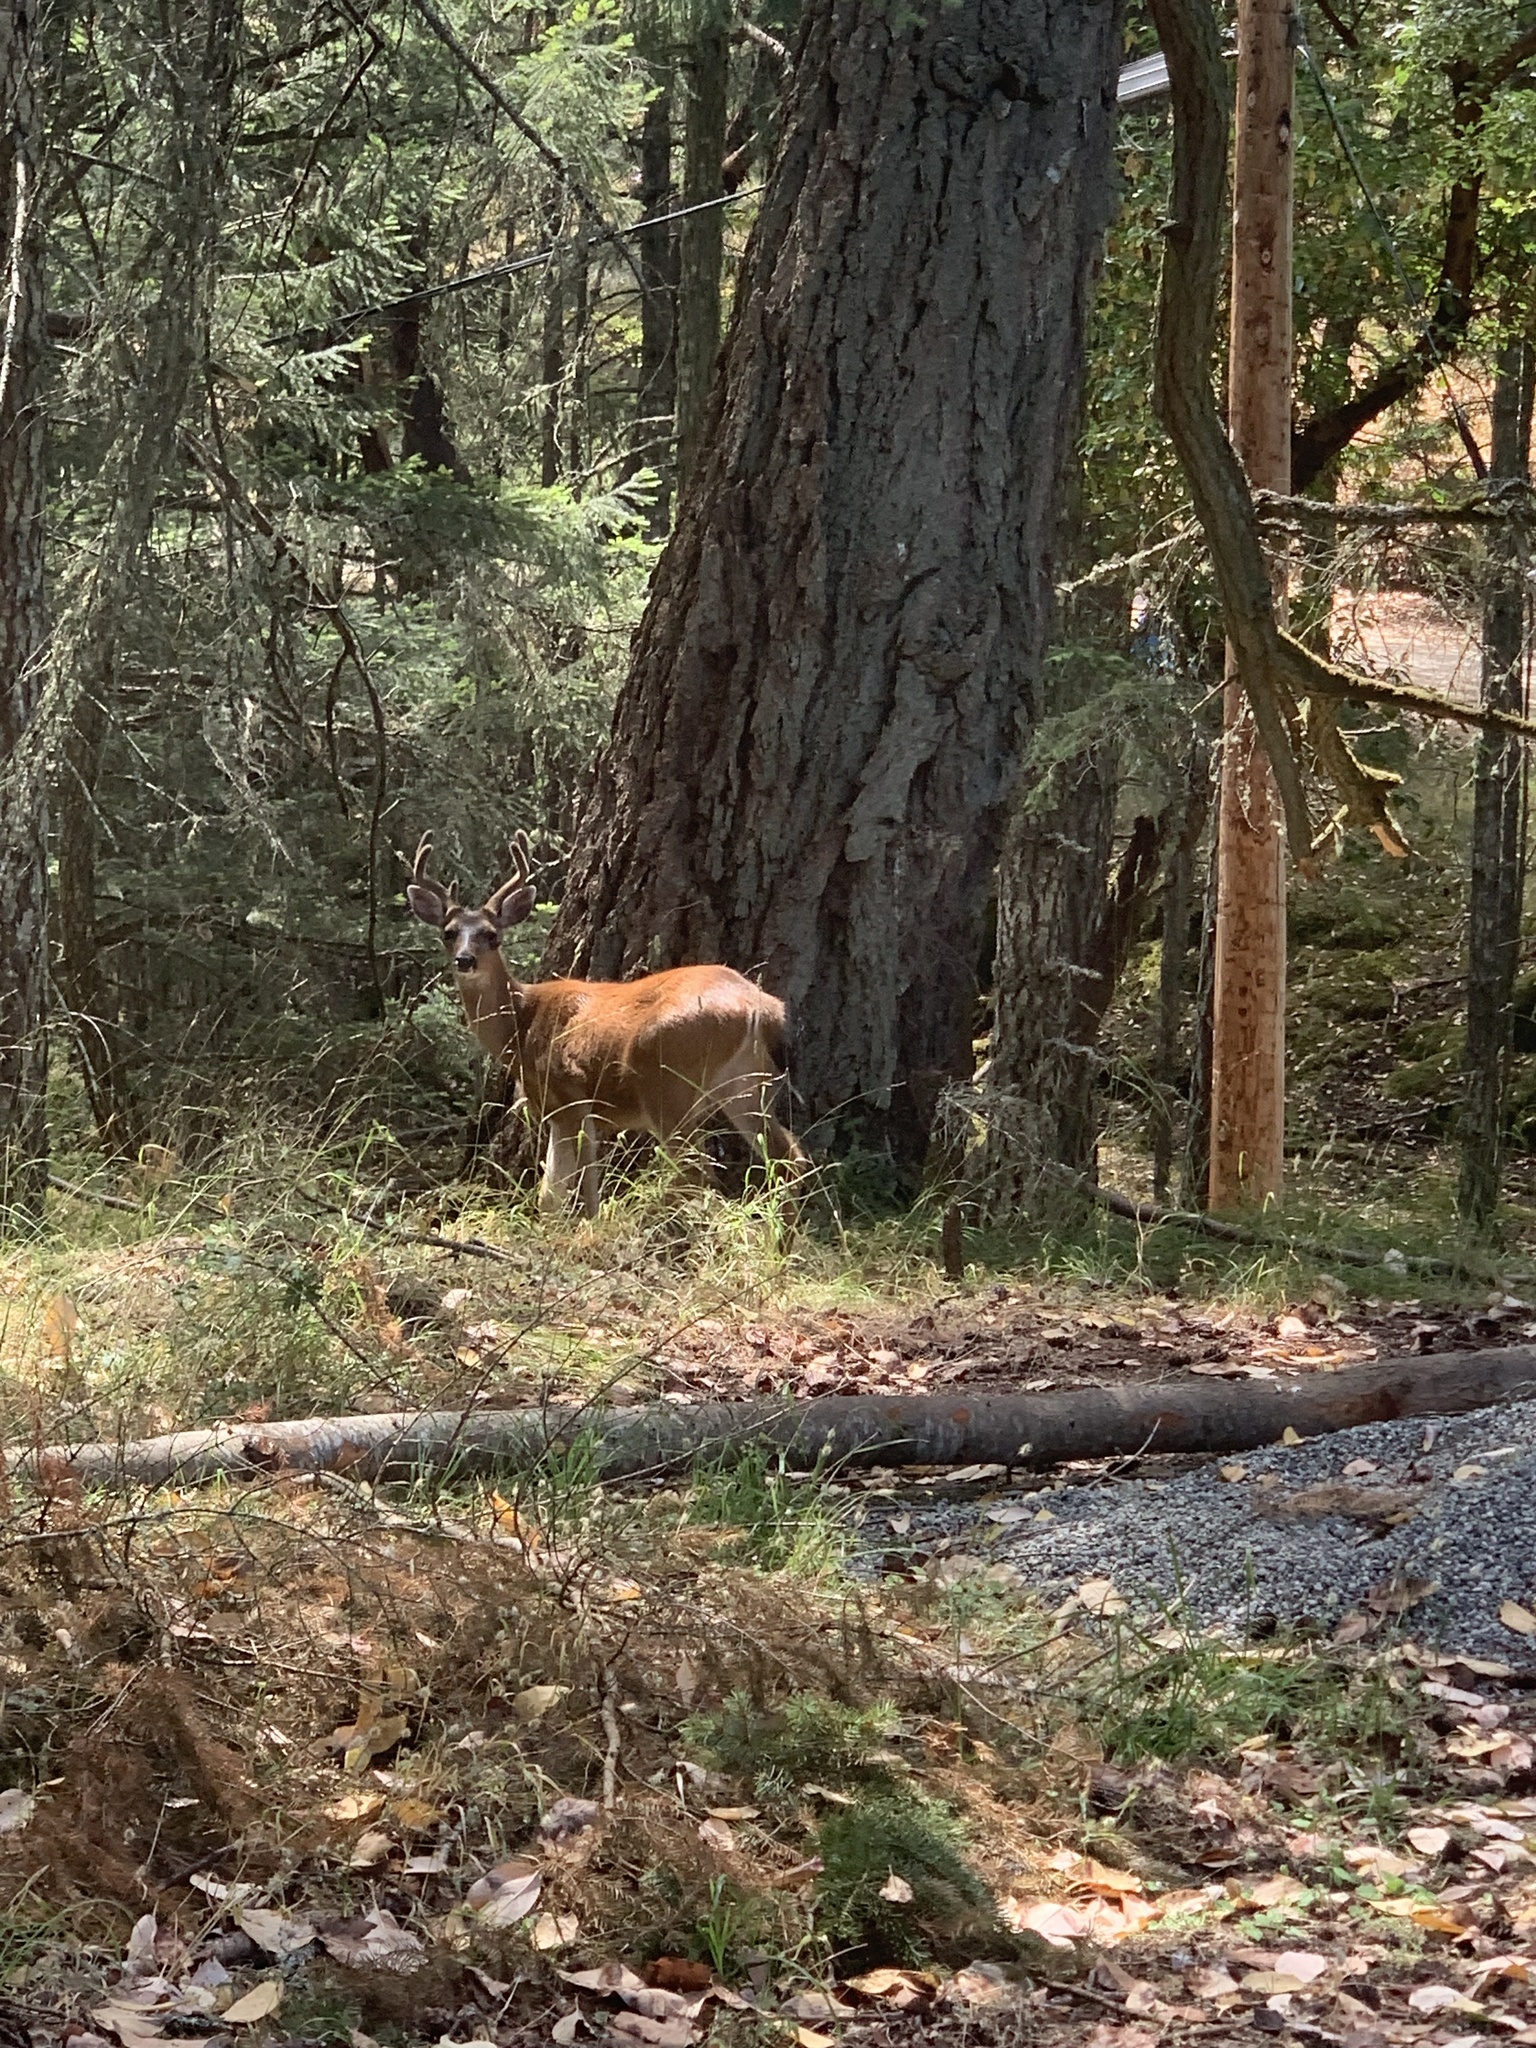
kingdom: Animalia
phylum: Chordata
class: Mammalia
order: Artiodactyla
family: Cervidae
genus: Odocoileus
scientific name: Odocoileus hemionus
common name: Mule deer
